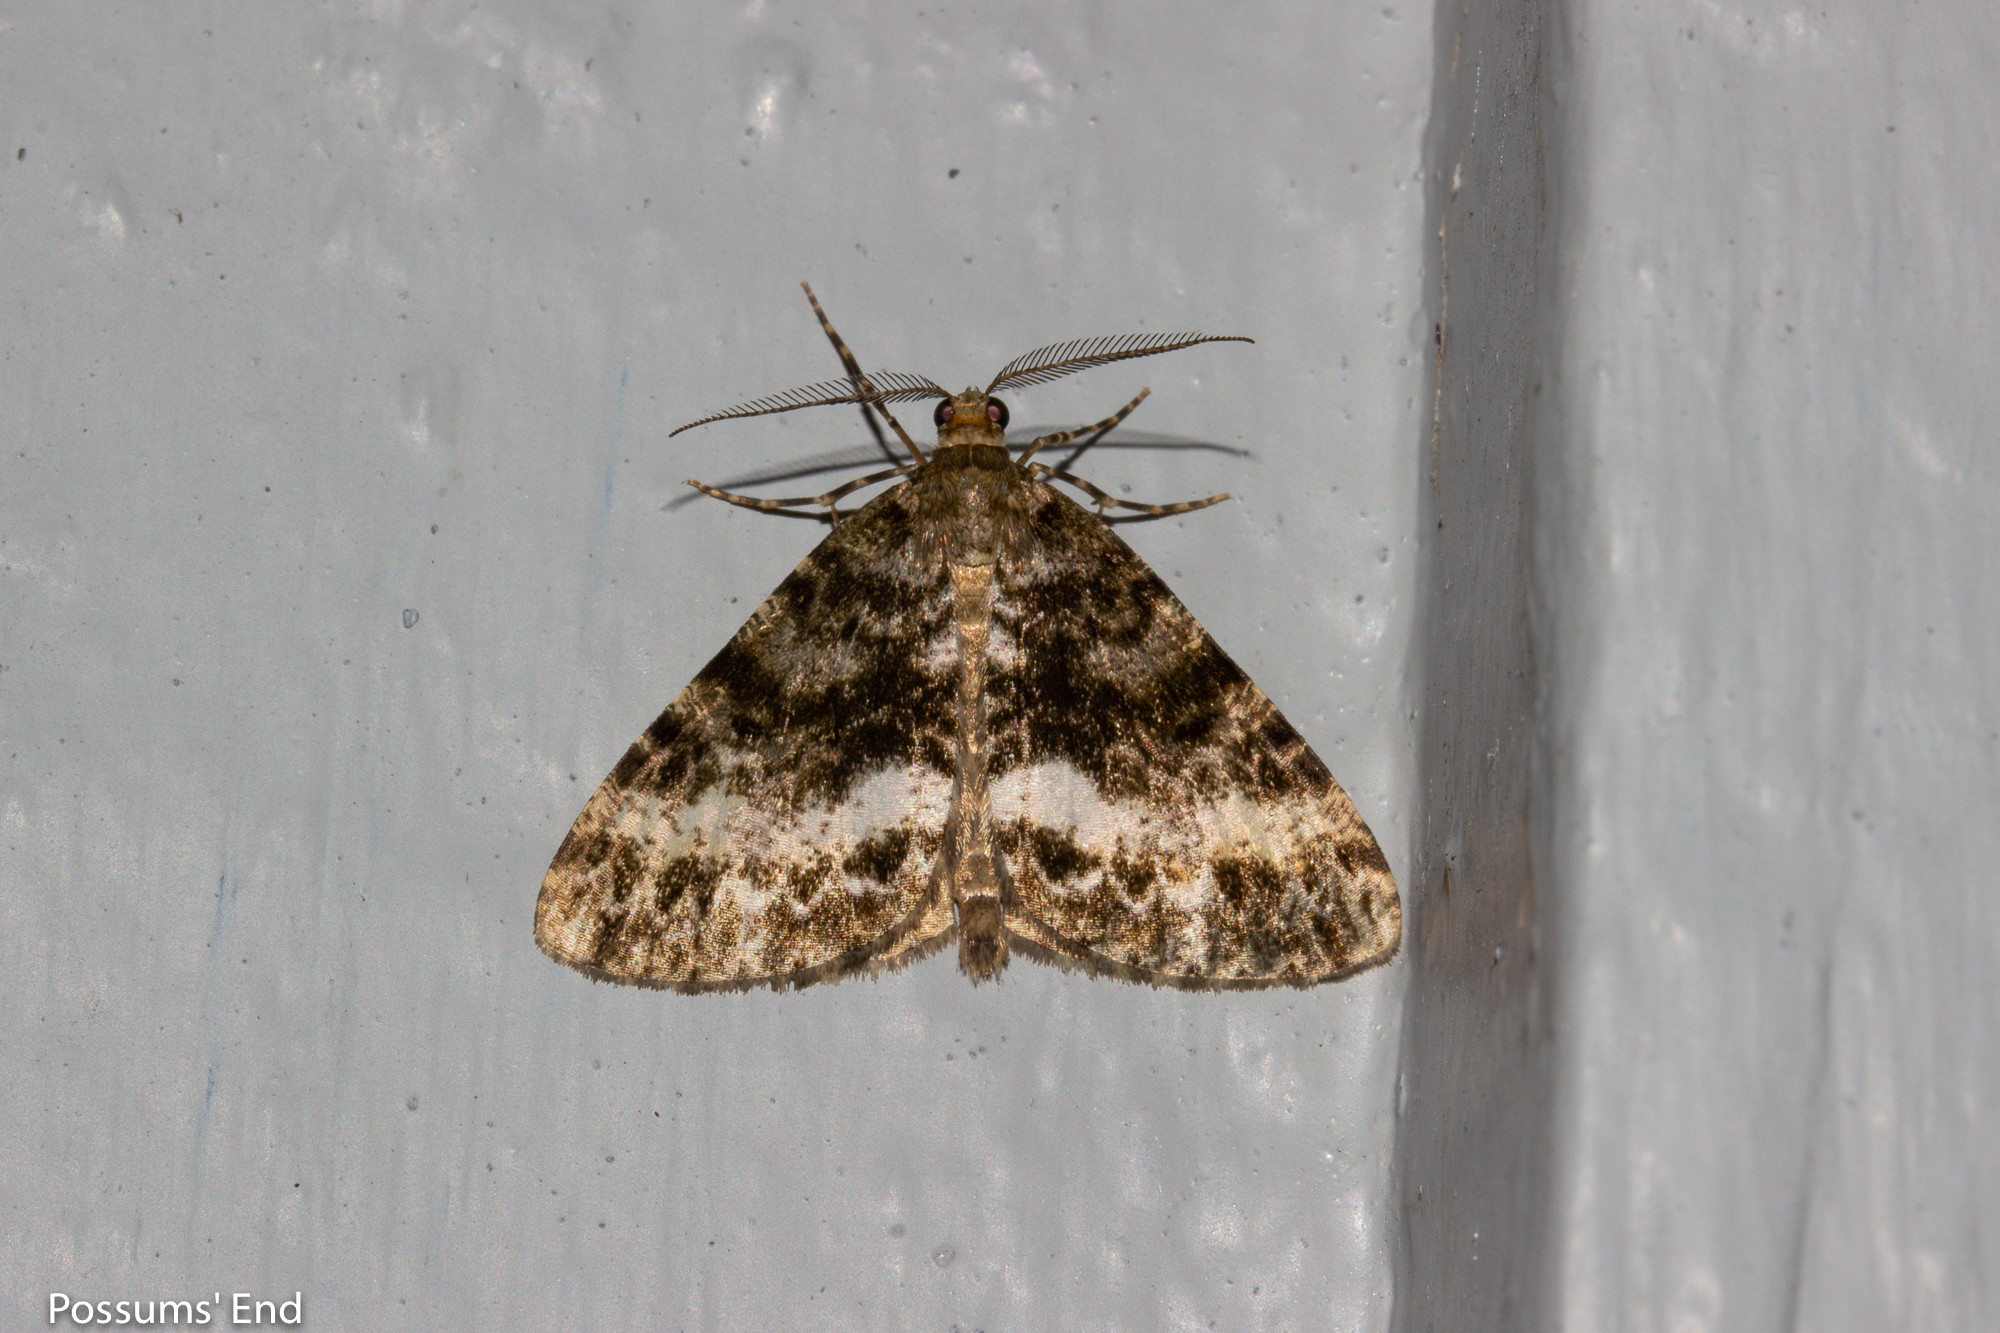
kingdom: Animalia
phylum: Arthropoda
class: Insecta
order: Lepidoptera
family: Geometridae
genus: Pseudocoremia
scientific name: Pseudocoremia lactiflua
